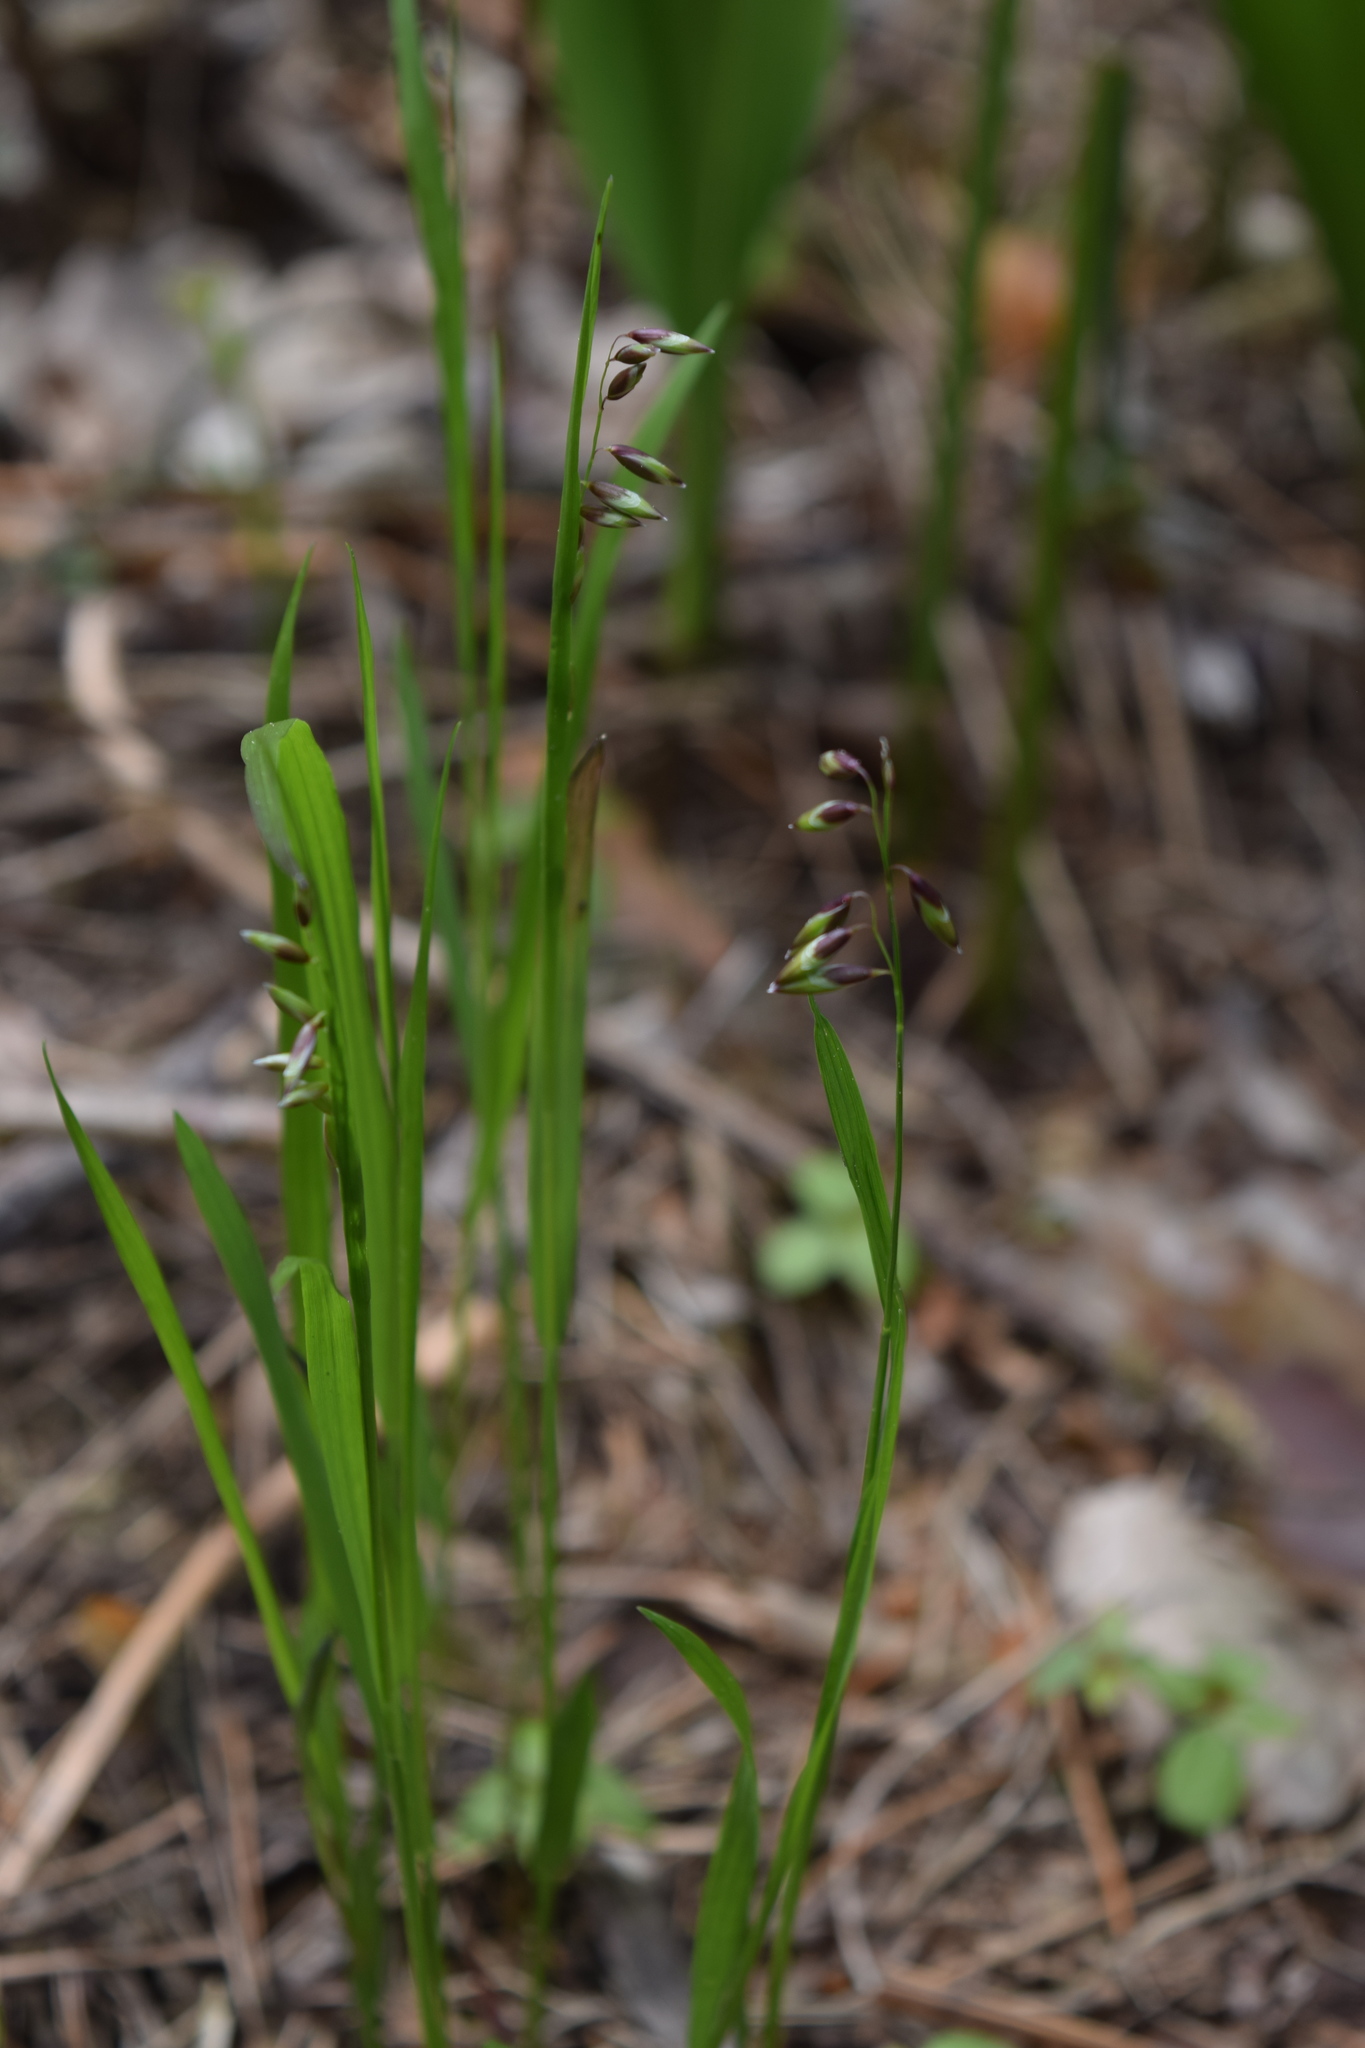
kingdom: Plantae
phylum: Tracheophyta
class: Liliopsida
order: Poales
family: Poaceae
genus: Melica
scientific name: Melica nutans
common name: Mountain melick
